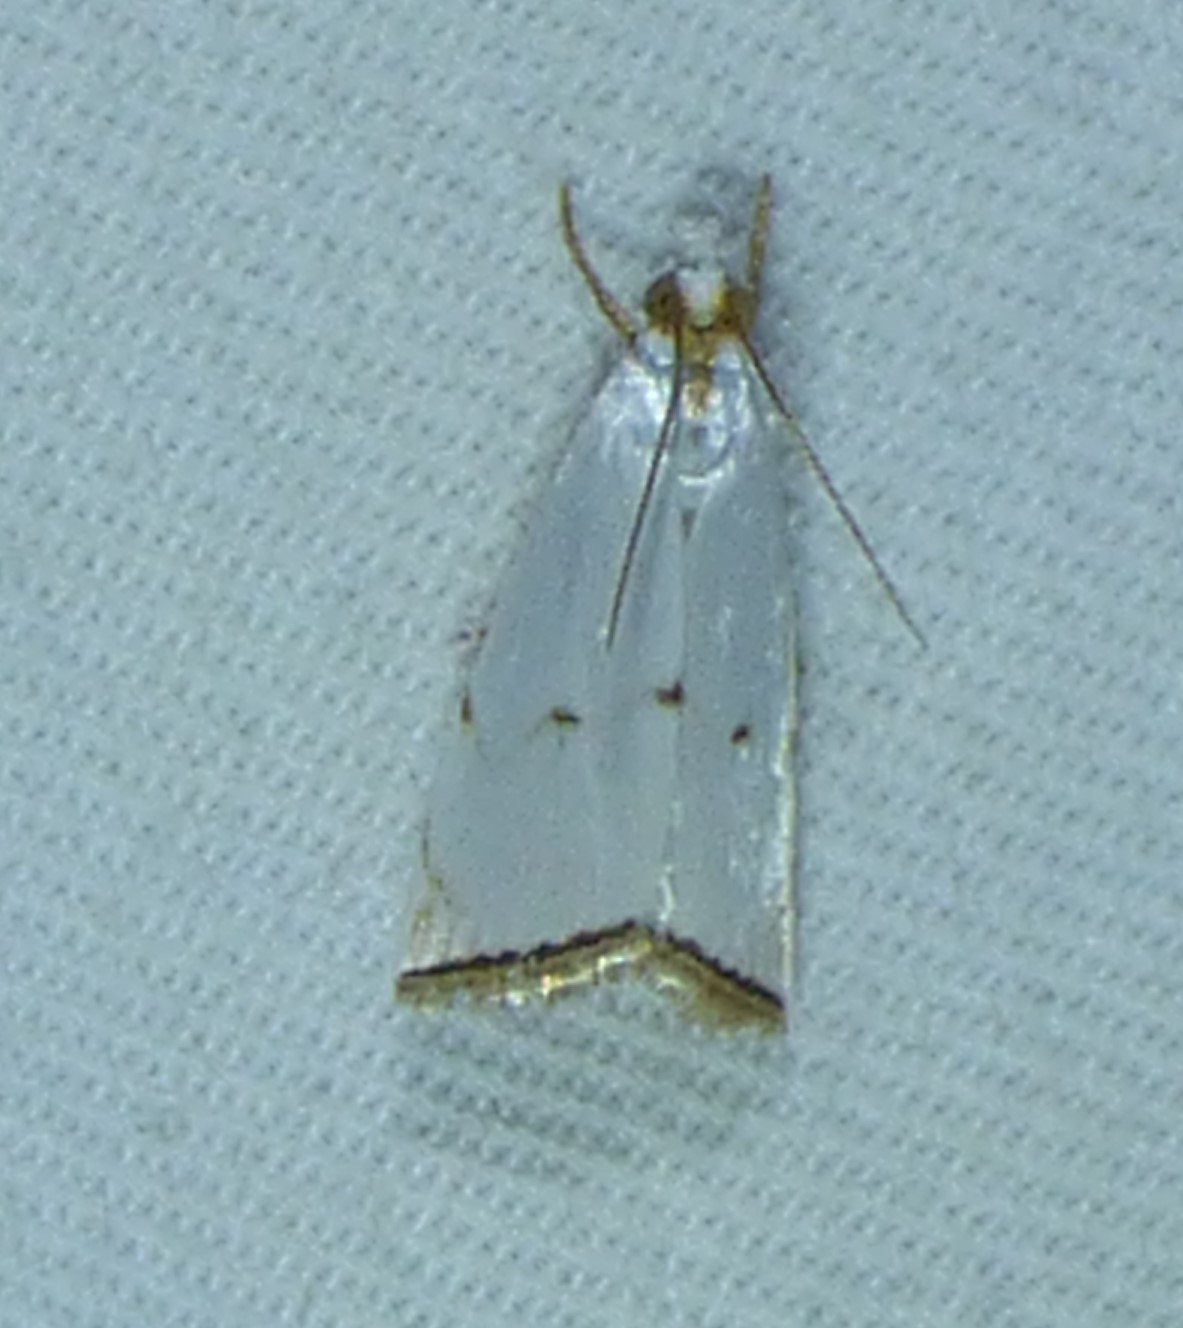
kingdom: Animalia
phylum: Arthropoda
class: Insecta
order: Lepidoptera
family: Crambidae
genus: Argyria
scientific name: Argyria pusillalis
